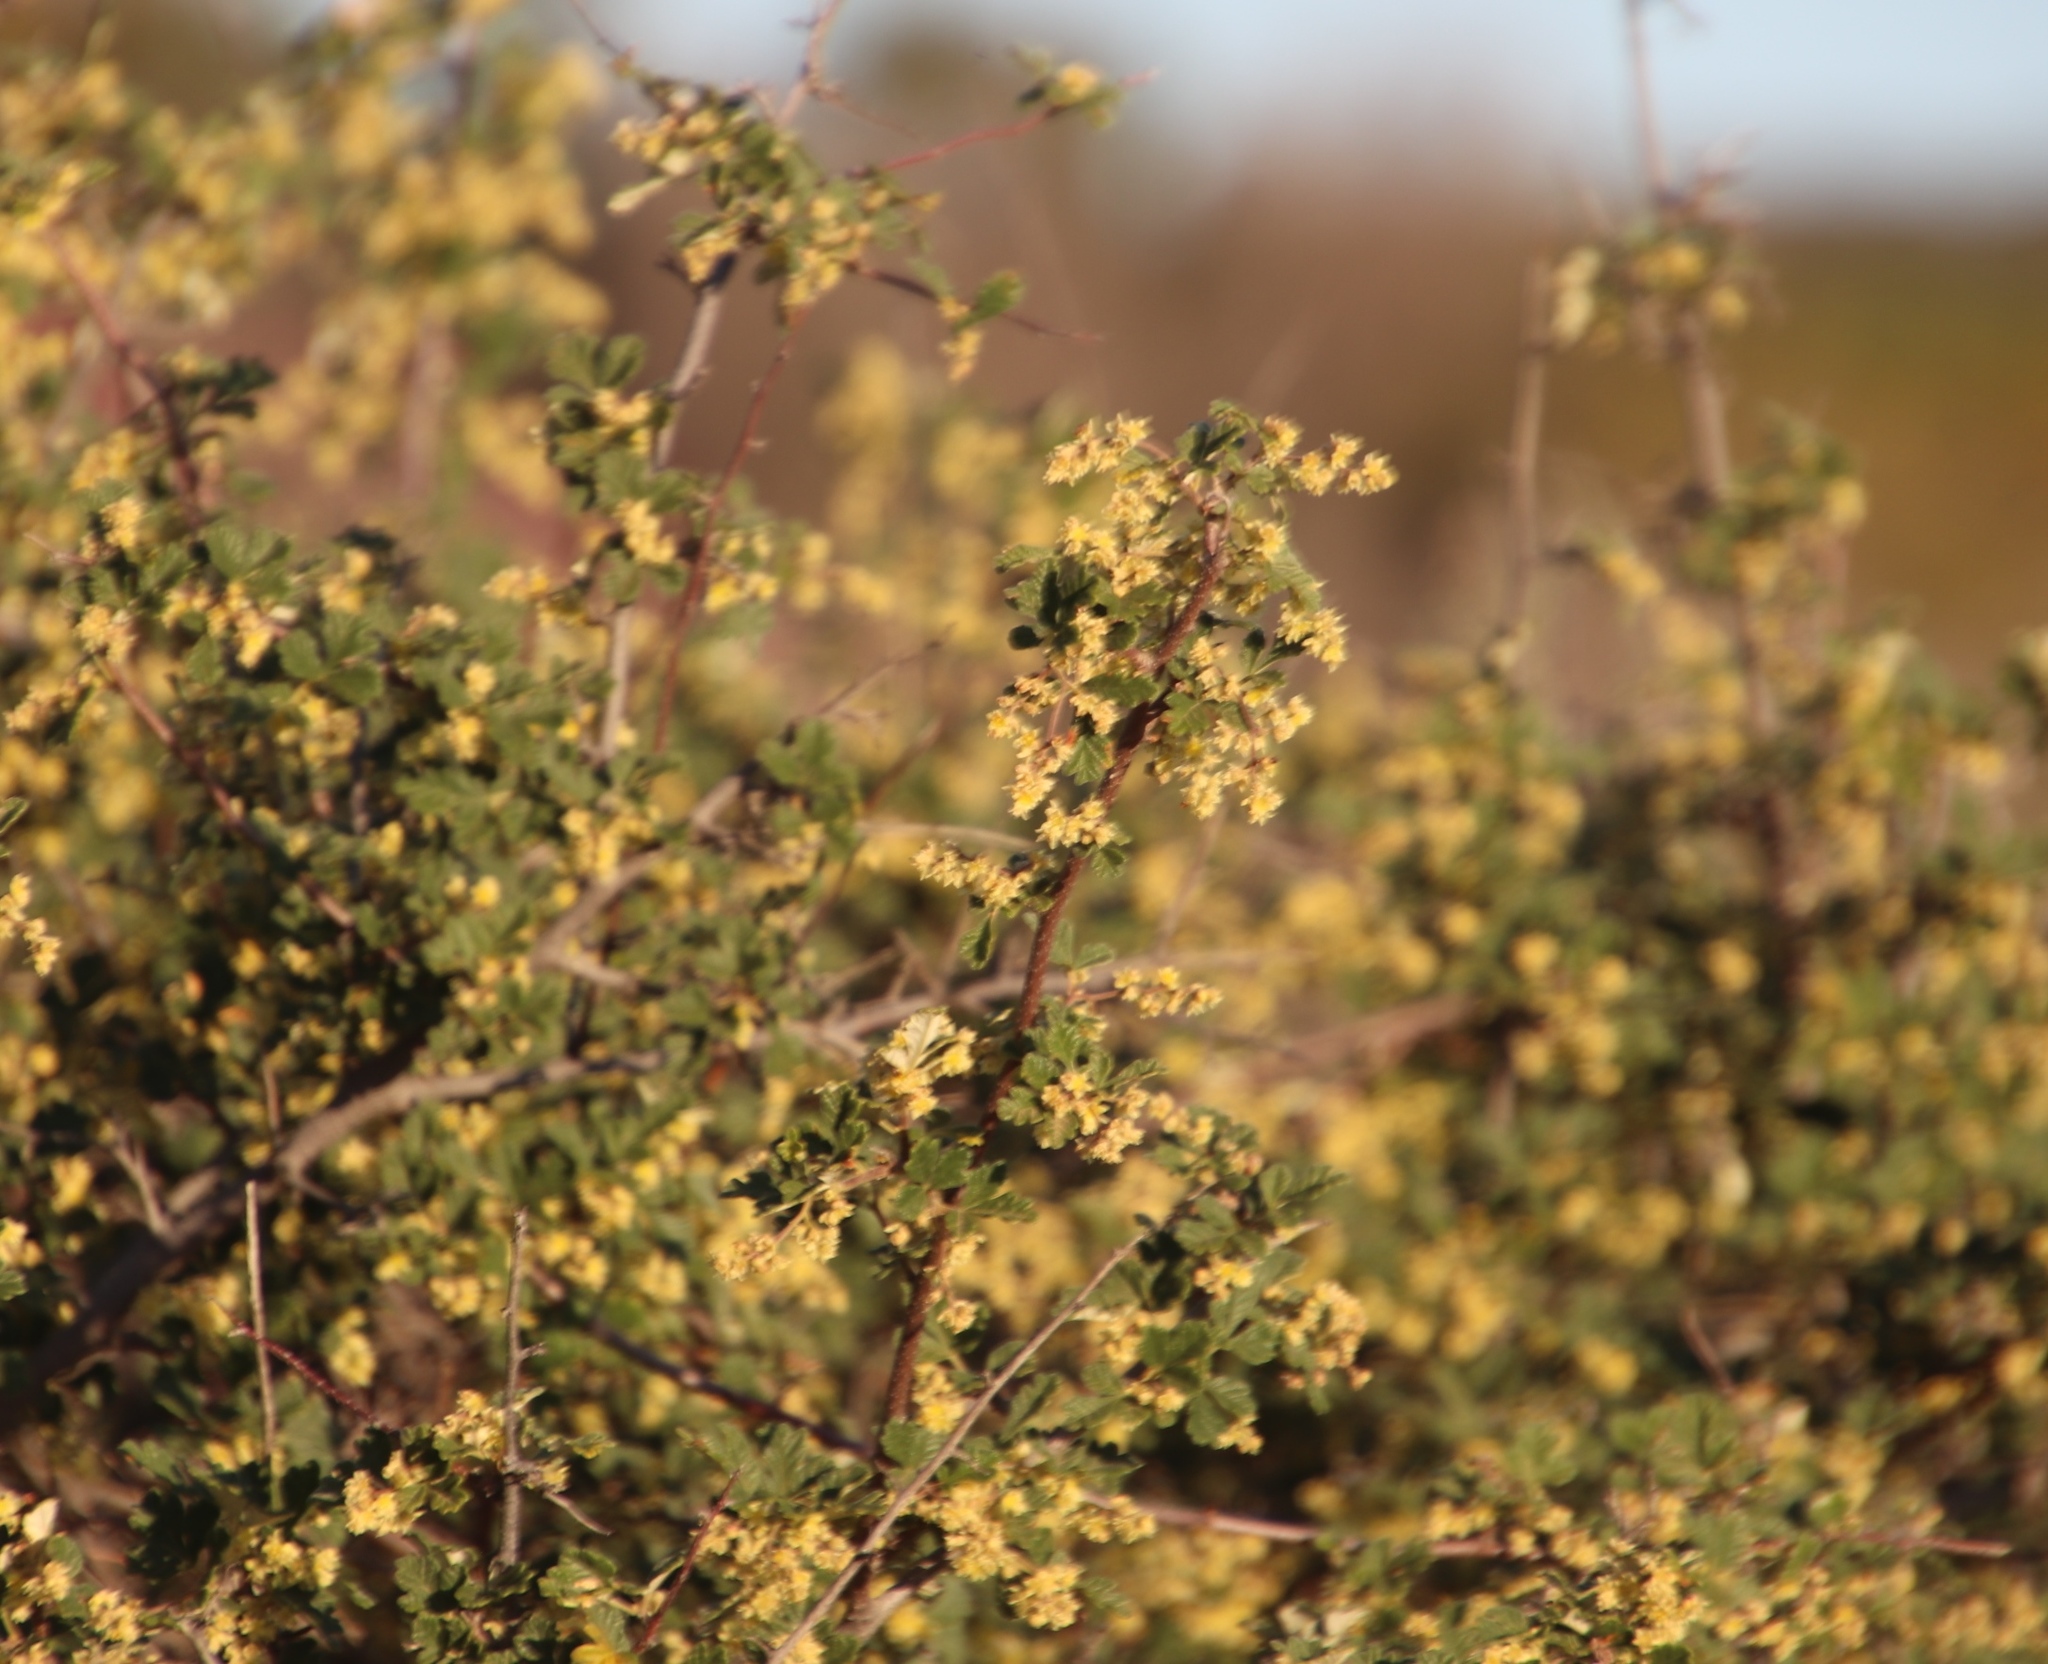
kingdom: Plantae
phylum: Tracheophyta
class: Magnoliopsida
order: Sapindales
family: Anacardiaceae
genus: Searsia
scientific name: Searsia incisa
